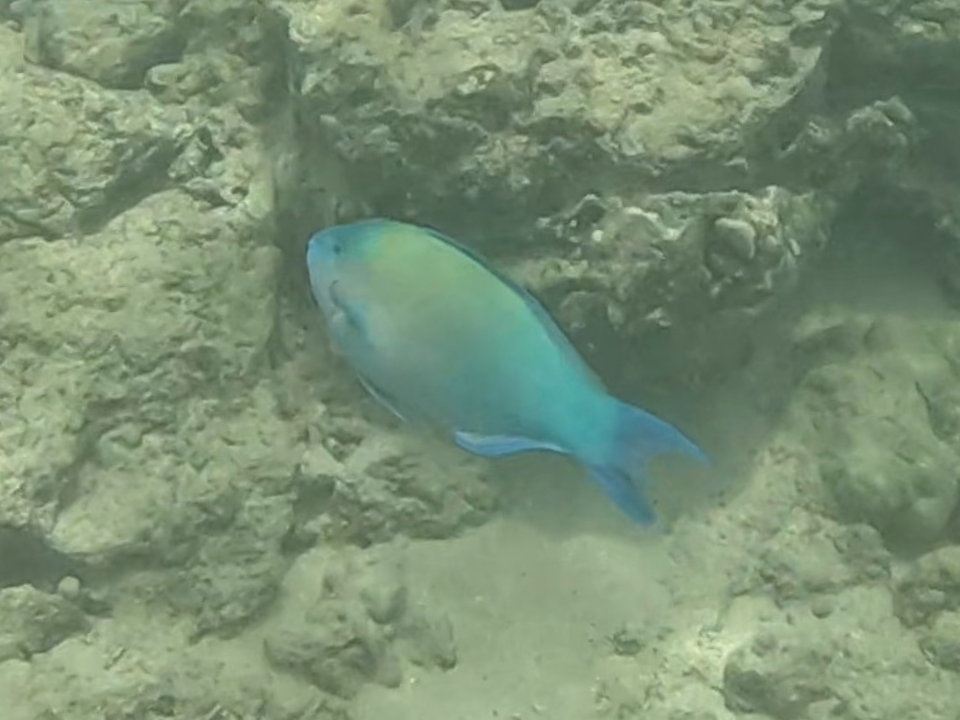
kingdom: Animalia
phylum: Chordata
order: Perciformes
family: Scaridae
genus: Scarus
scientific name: Scarus psittacus
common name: Palenose parrotfish
